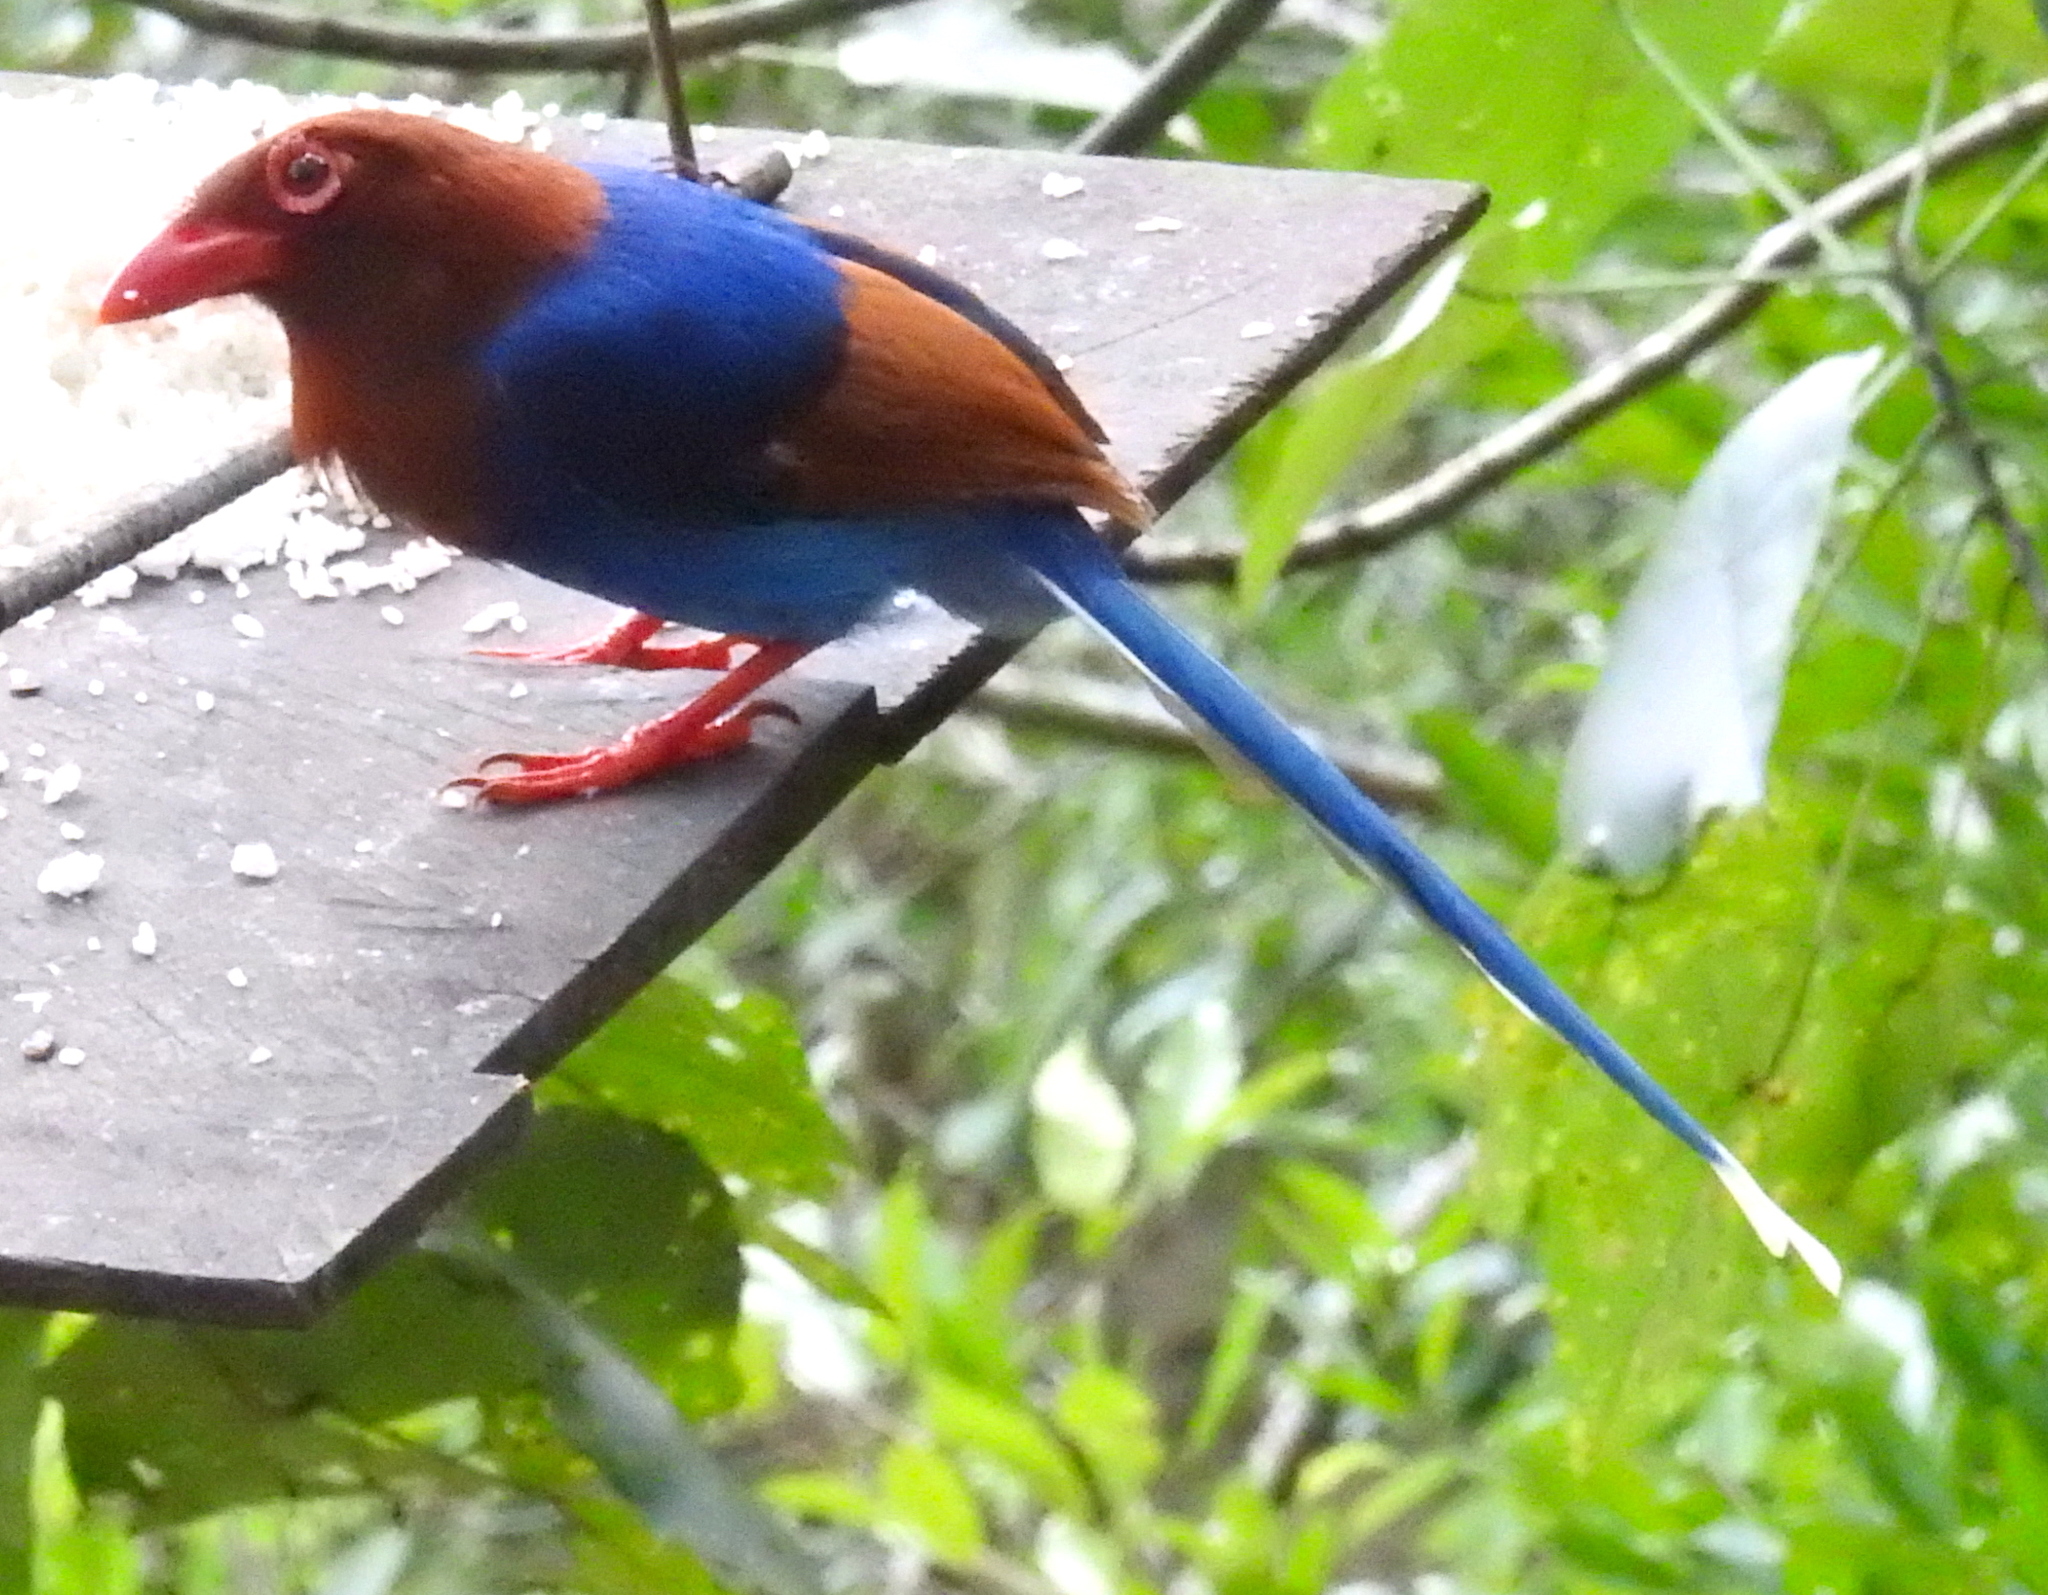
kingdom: Animalia
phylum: Chordata
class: Aves
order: Passeriformes
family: Corvidae
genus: Urocissa
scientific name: Urocissa ornata
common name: Sri lanka blue magpie
